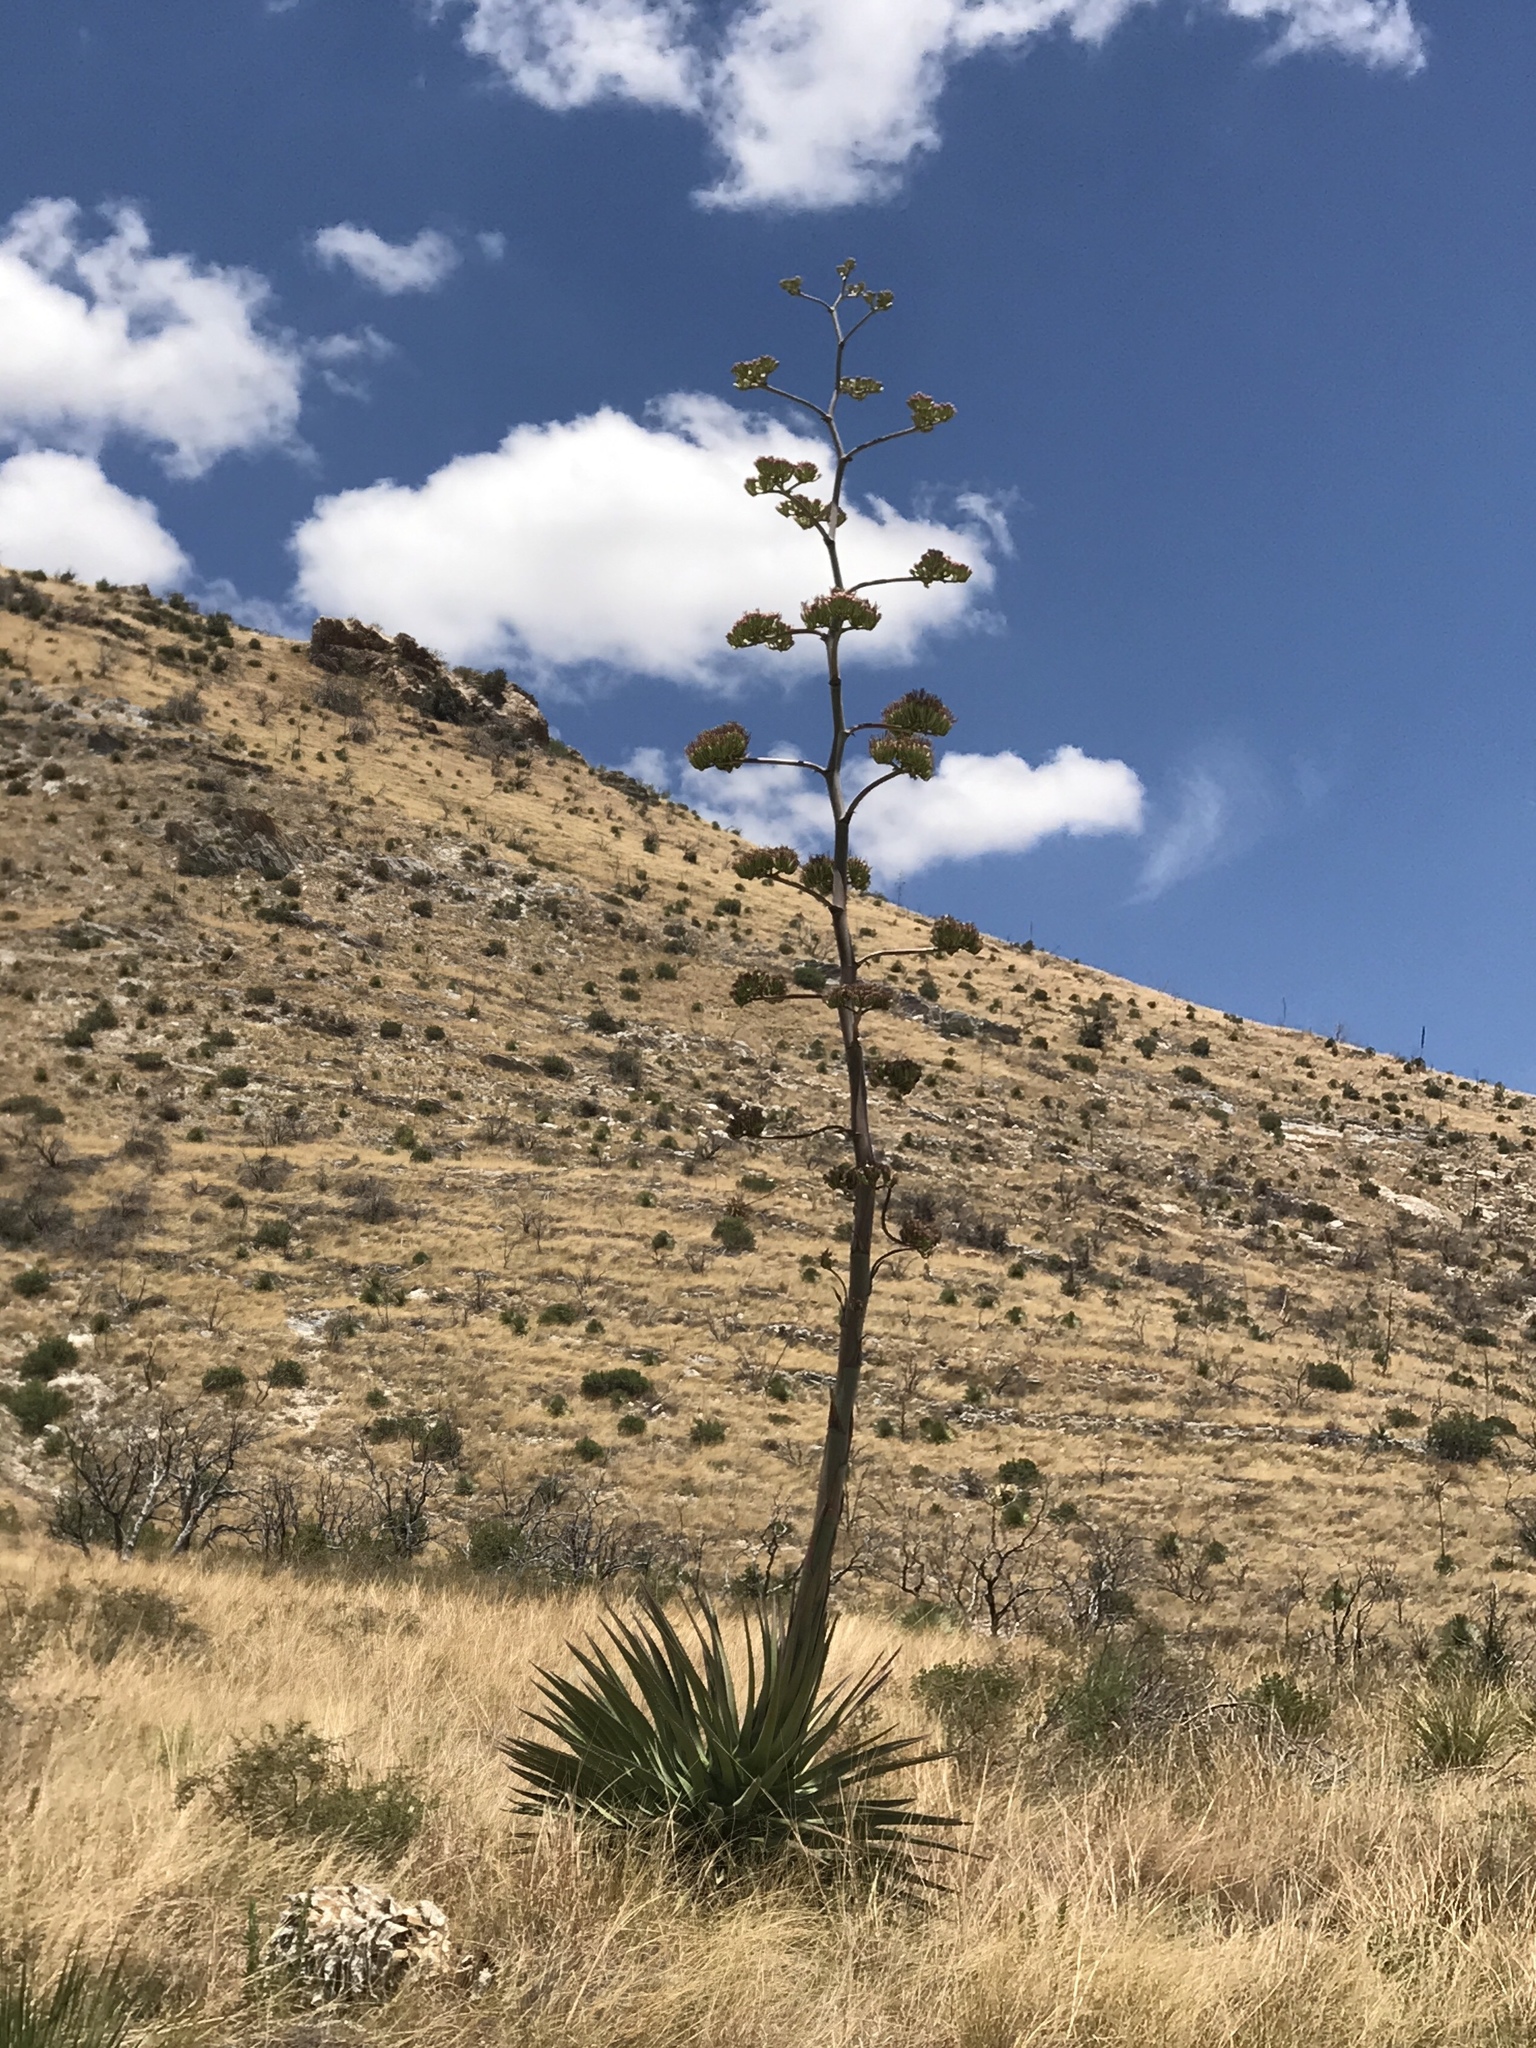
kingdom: Plantae
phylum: Tracheophyta
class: Liliopsida
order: Asparagales
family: Asparagaceae
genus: Agave
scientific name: Agave palmeri
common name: Palmer agave
